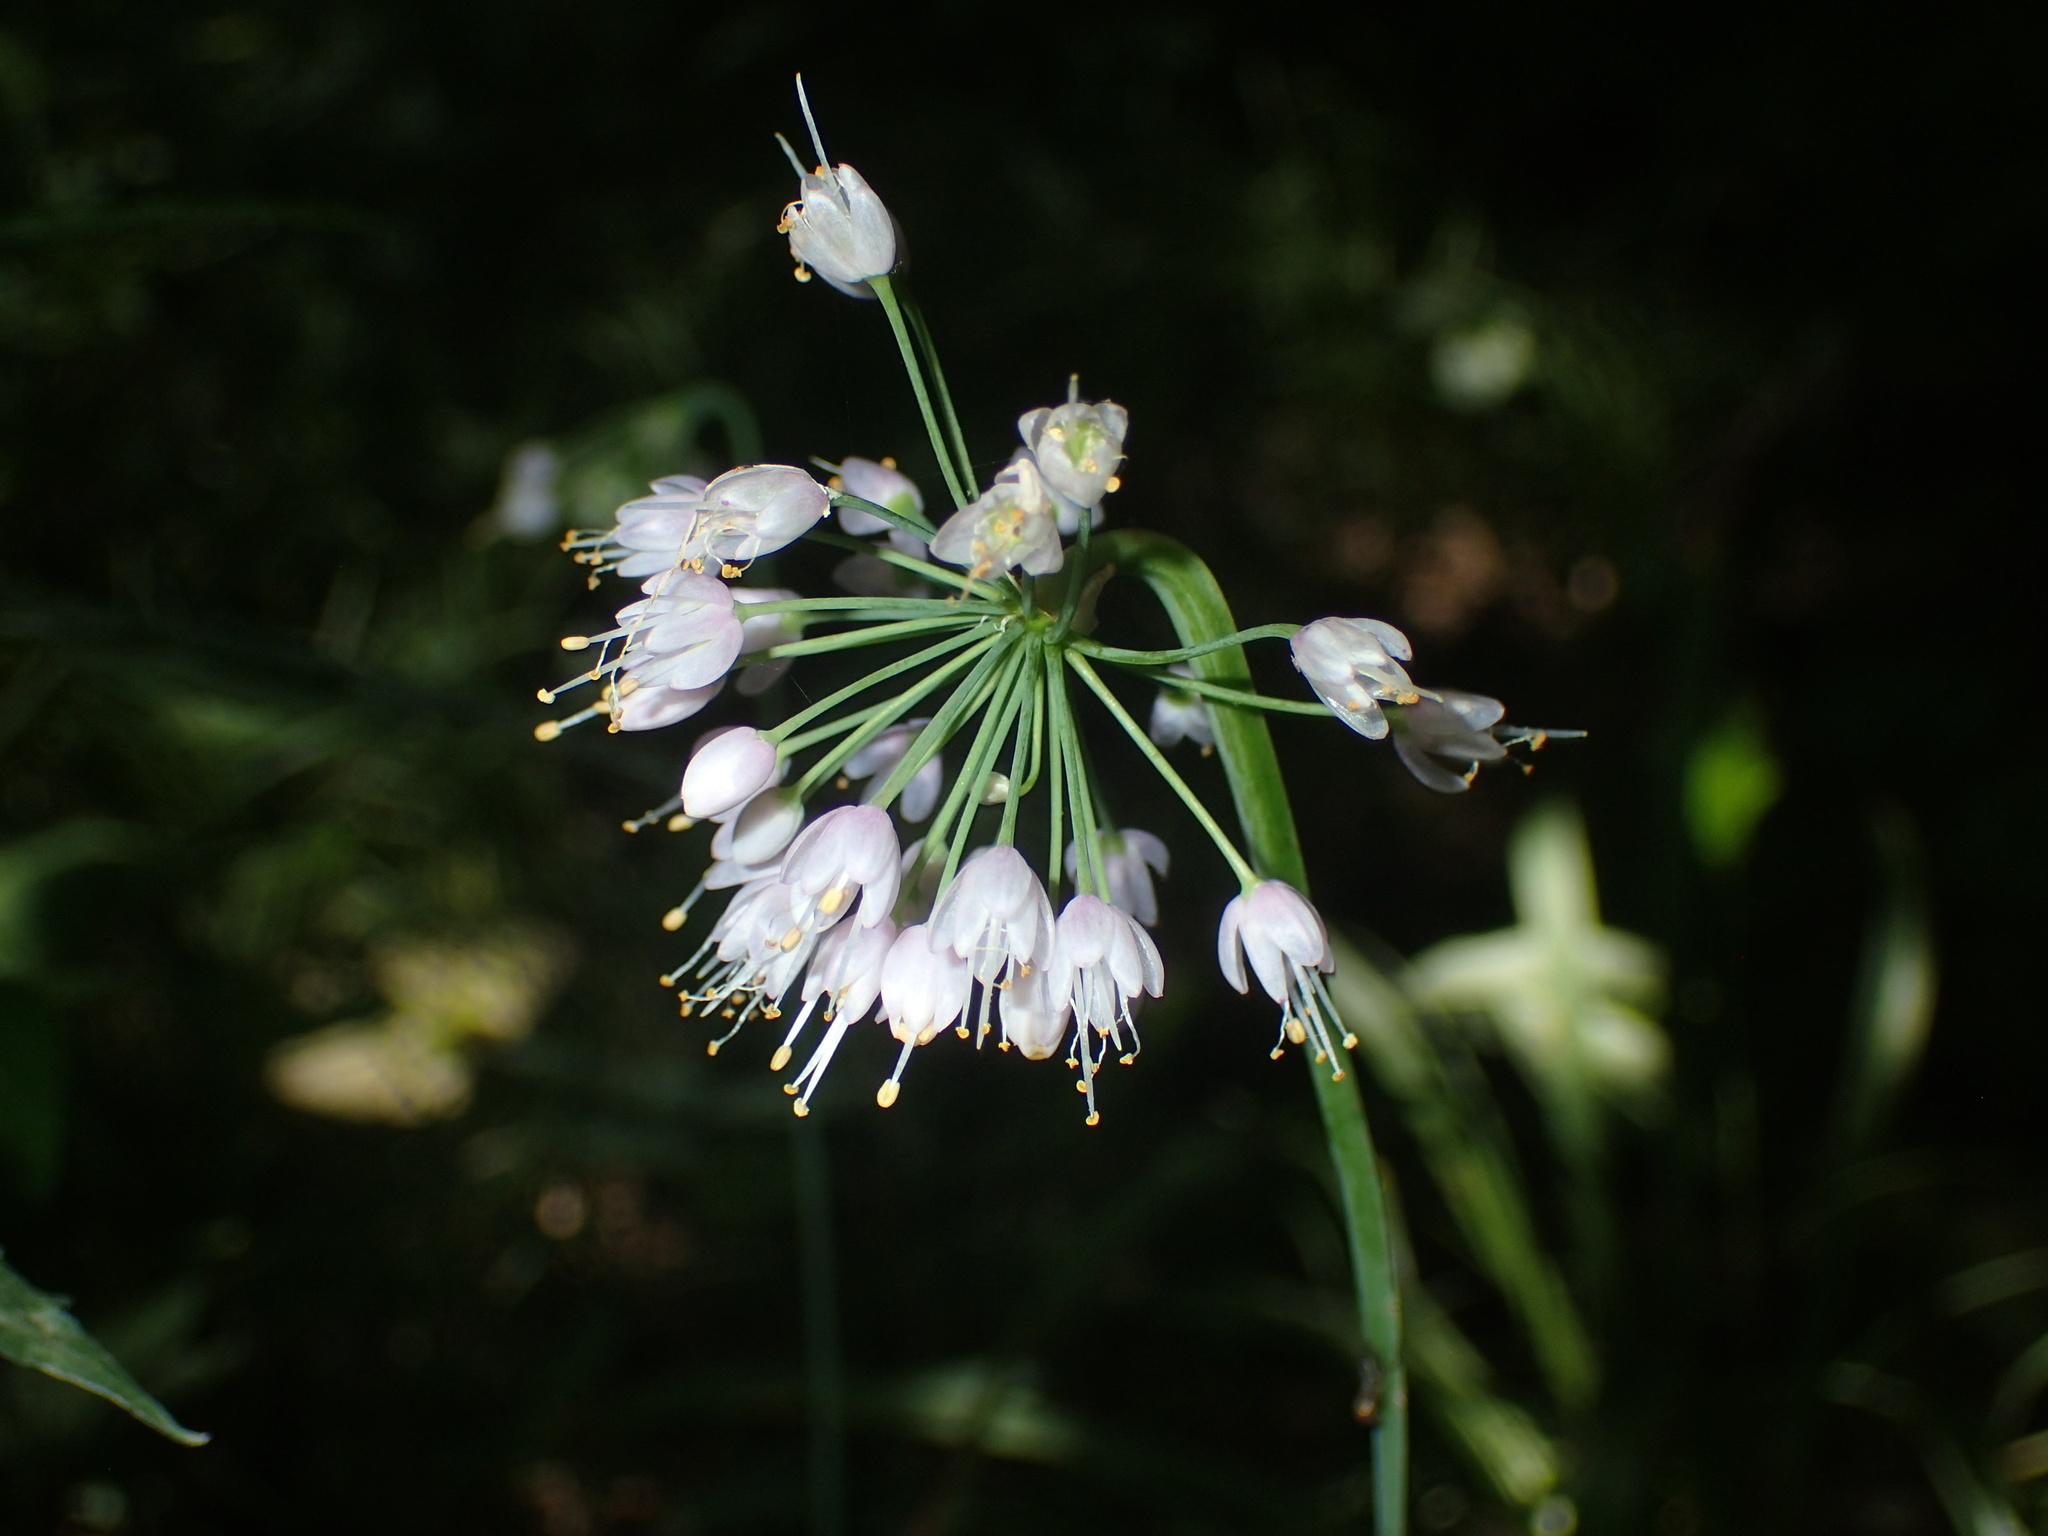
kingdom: Plantae
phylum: Tracheophyta
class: Liliopsida
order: Asparagales
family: Amaryllidaceae
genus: Allium
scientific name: Allium cernuum
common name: Nodding onion
